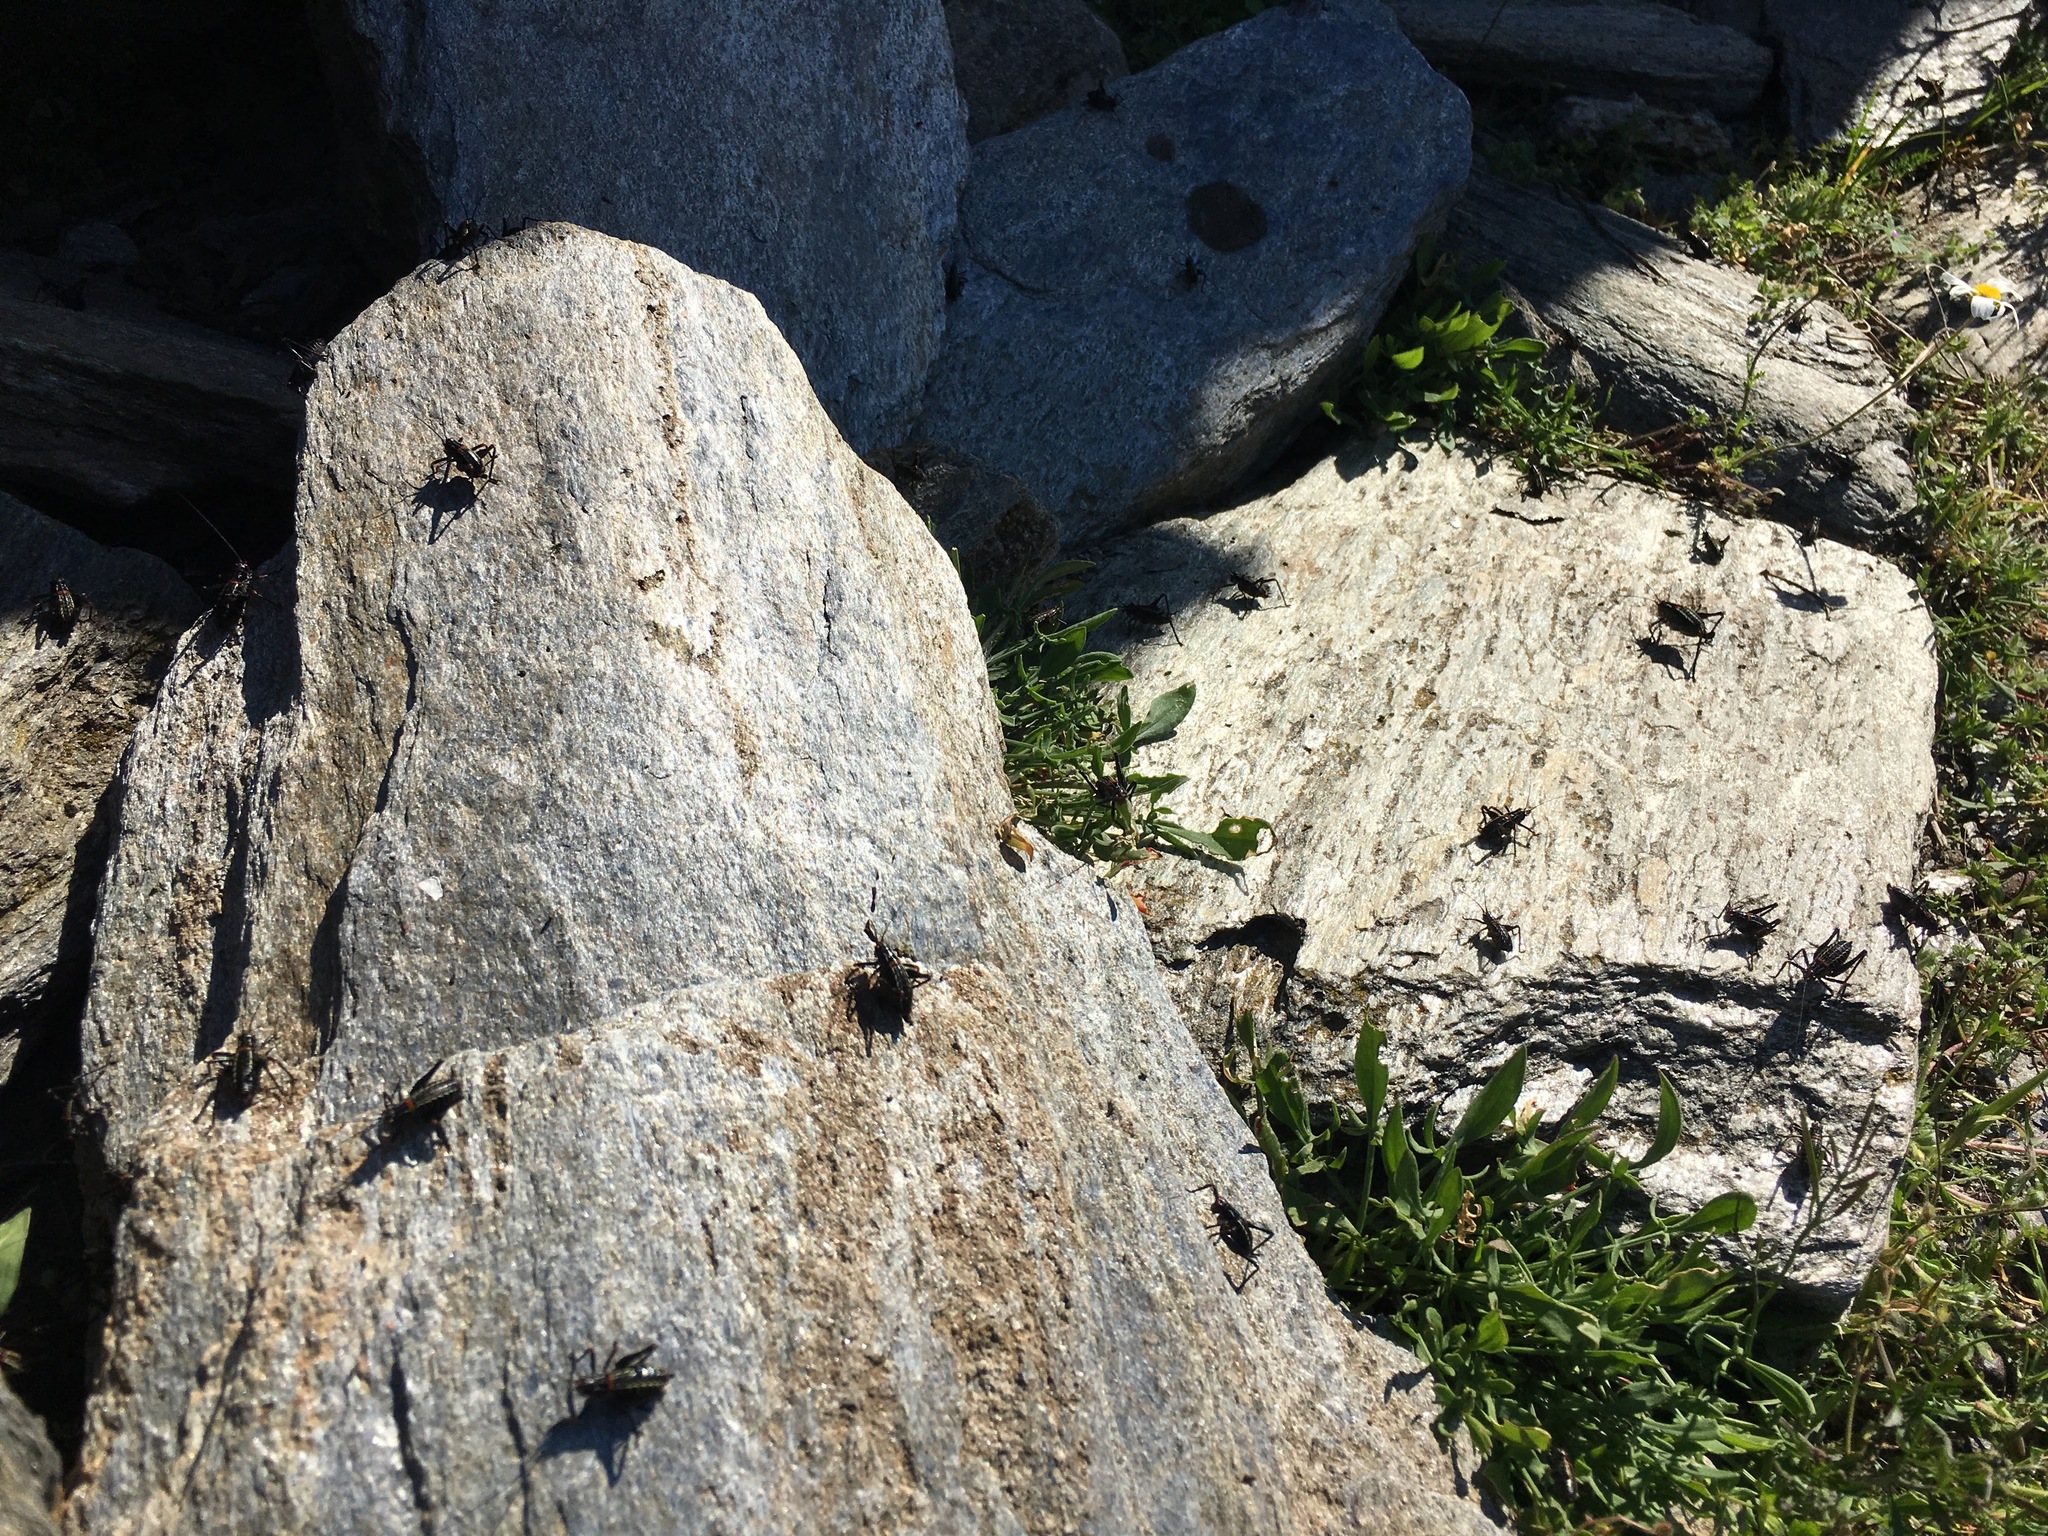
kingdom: Animalia
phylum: Arthropoda
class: Insecta
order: Orthoptera
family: Tettigoniidae
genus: Poecilimon
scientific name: Poecilimon klausgerhardi
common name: Andros bright bush-cricket
